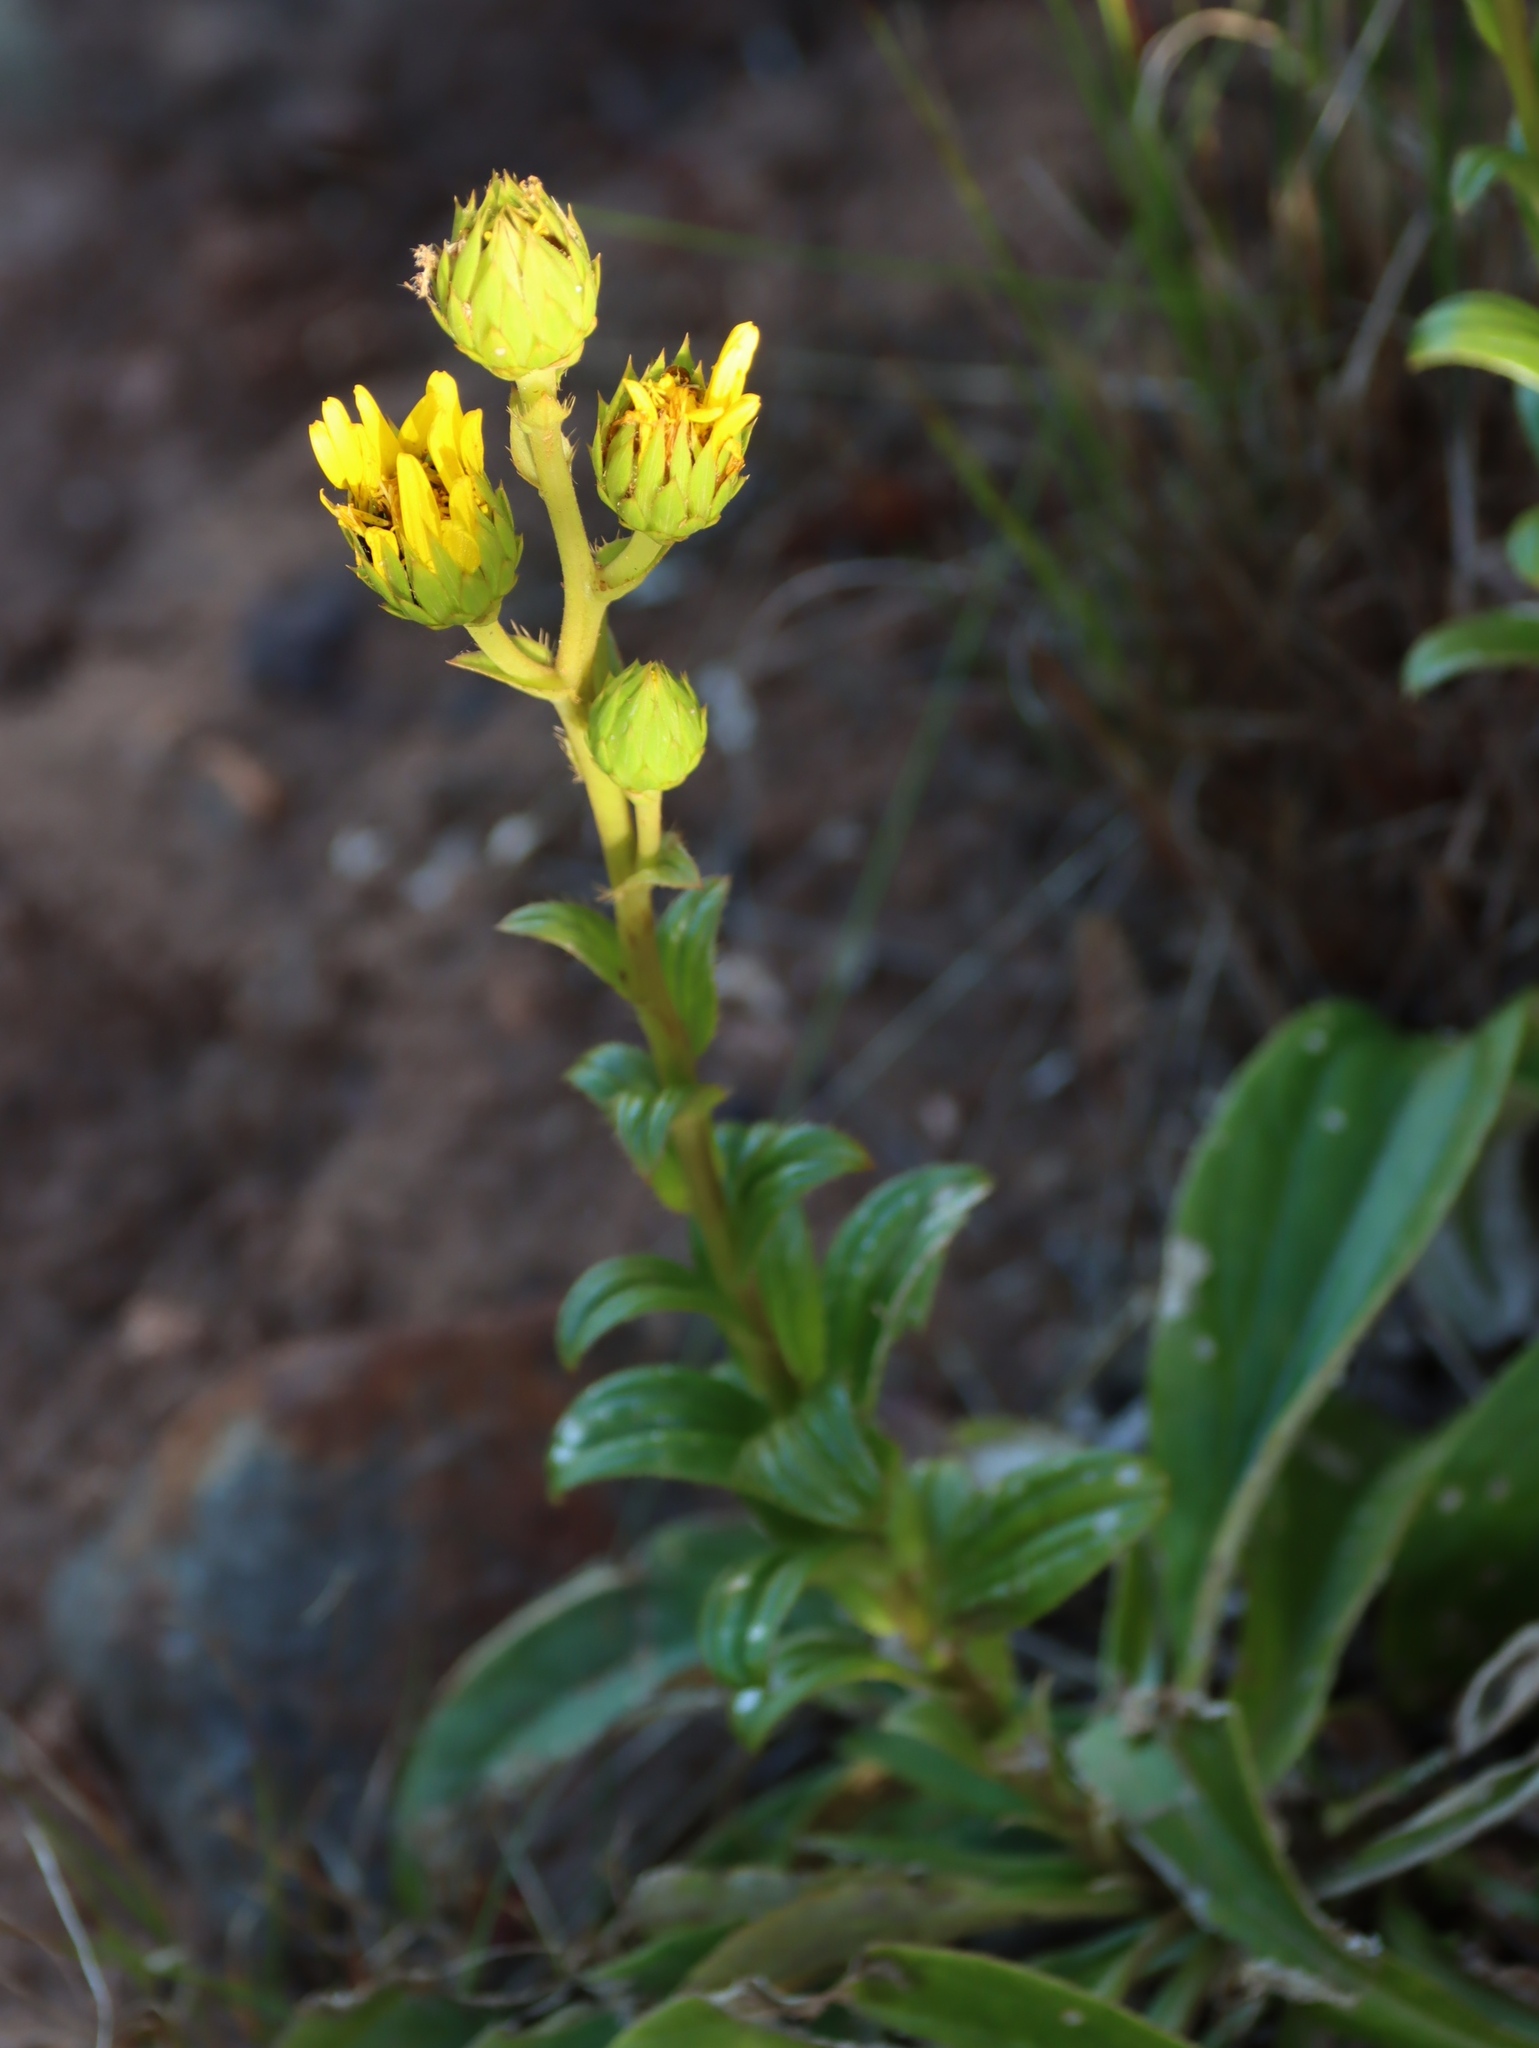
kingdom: Plantae
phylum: Tracheophyta
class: Magnoliopsida
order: Asterales
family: Asteraceae
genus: Berkheya
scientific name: Berkheya herbacea
